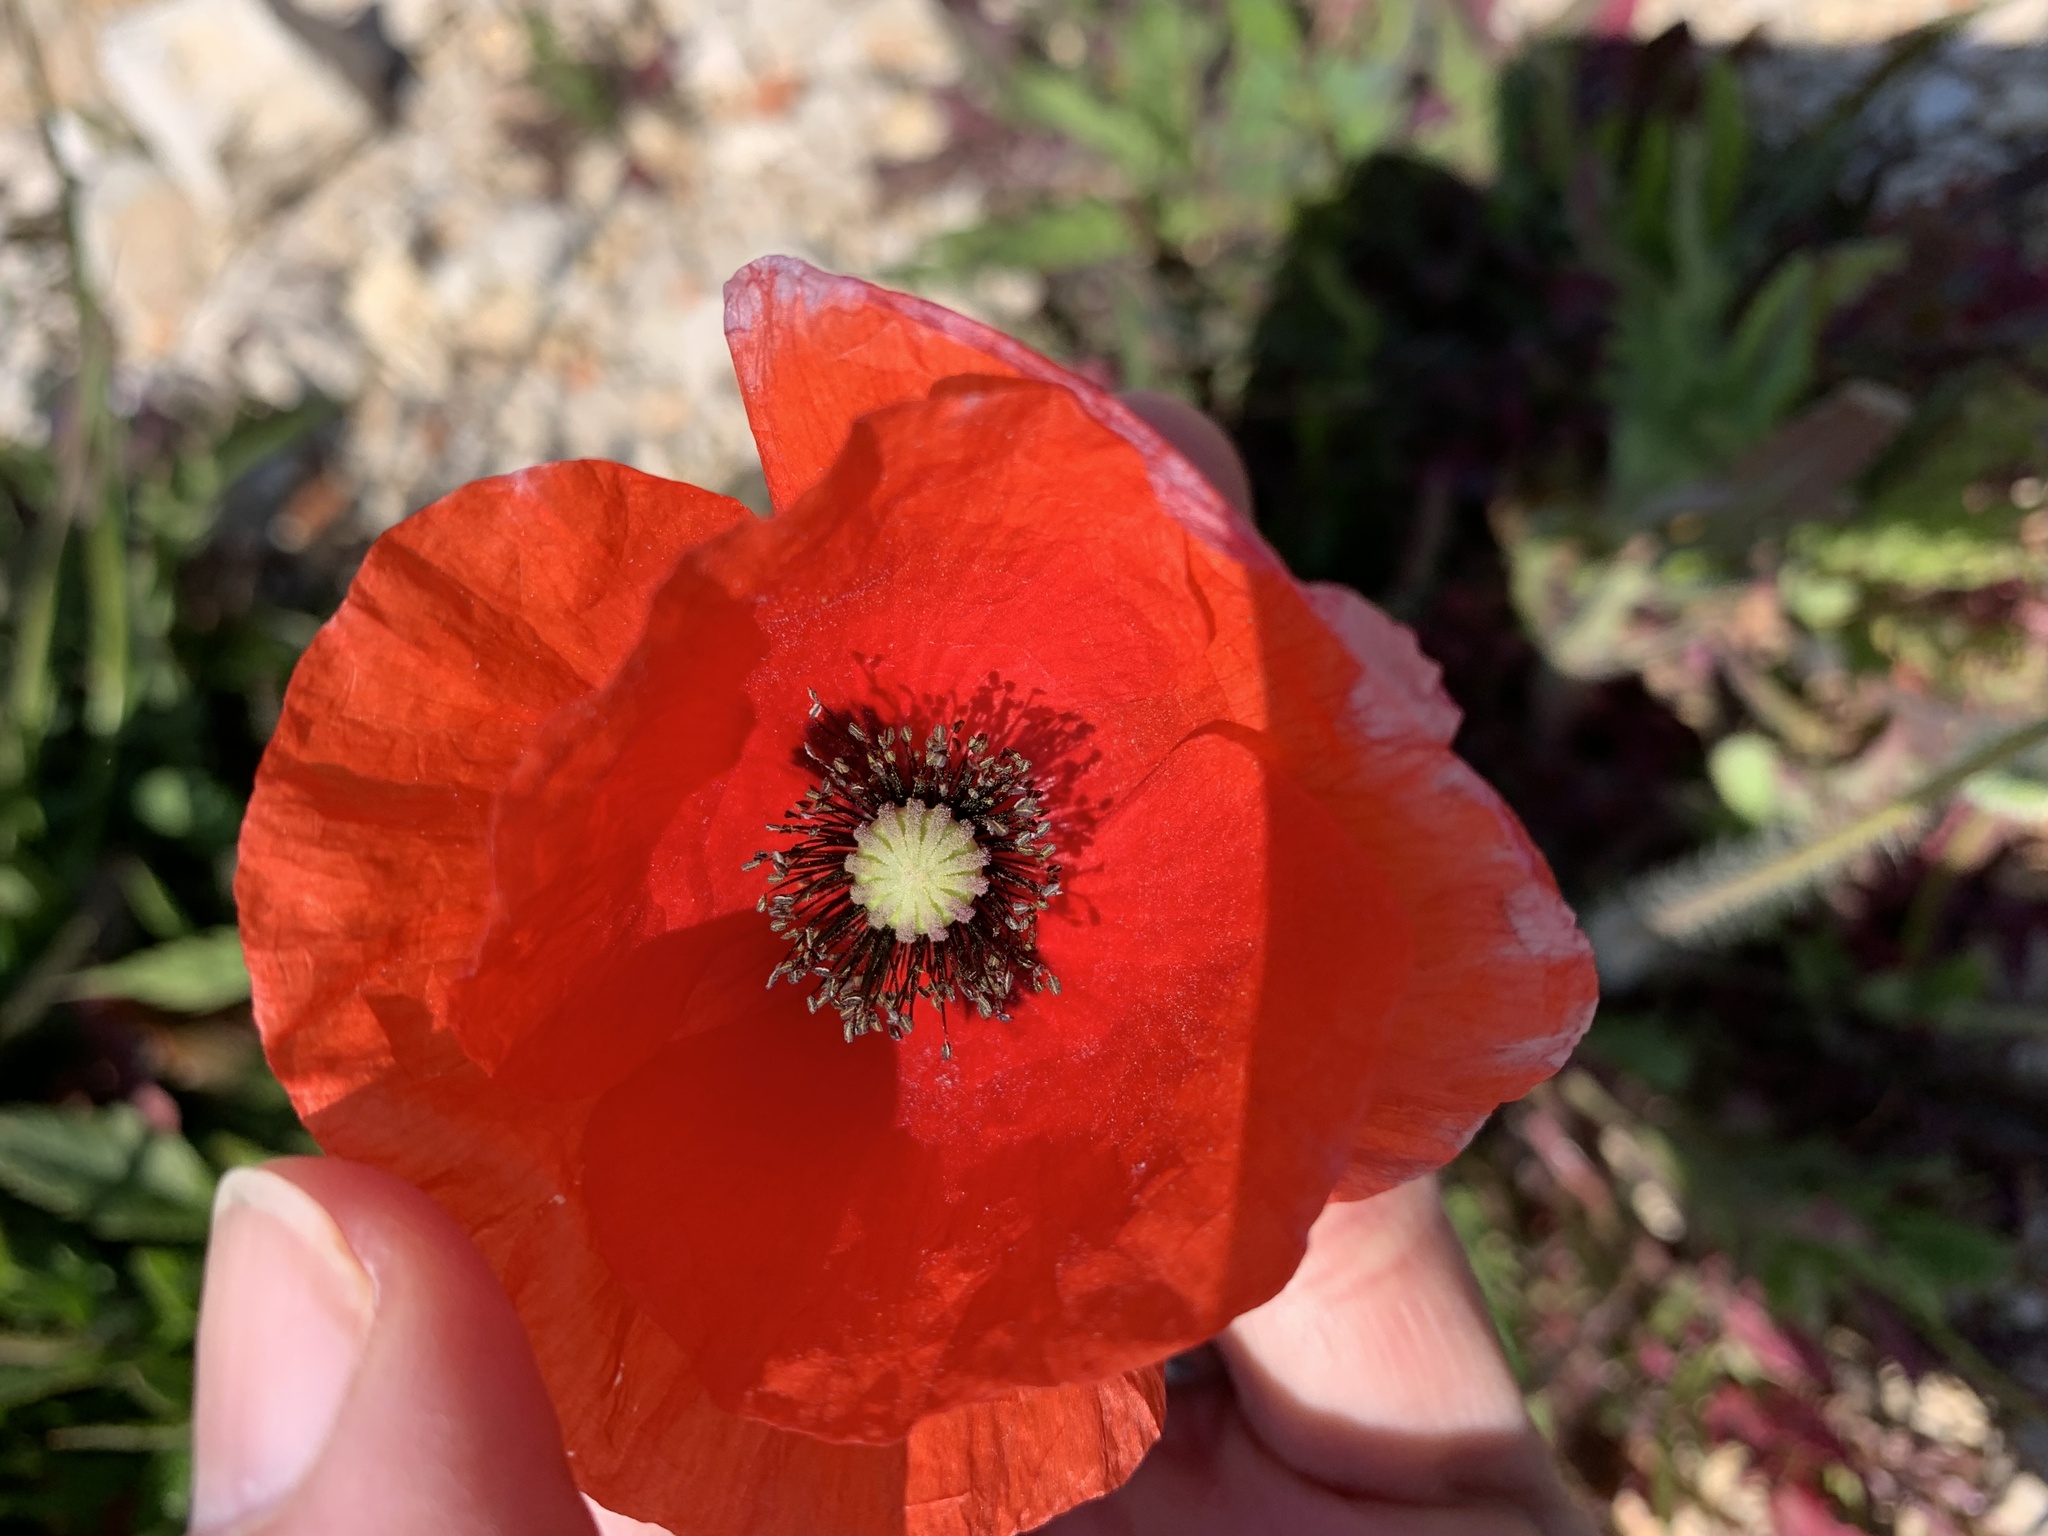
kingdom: Plantae
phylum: Tracheophyta
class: Magnoliopsida
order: Ranunculales
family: Papaveraceae
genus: Papaver
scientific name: Papaver rhoeas
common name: Corn poppy
